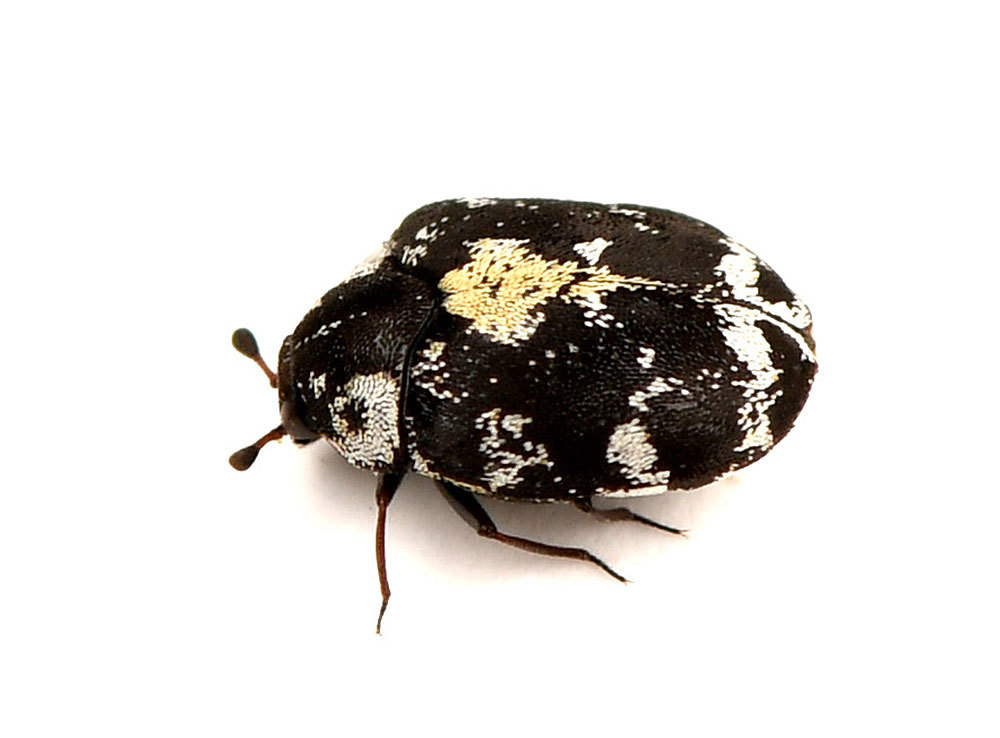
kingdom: Animalia
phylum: Arthropoda
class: Insecta
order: Coleoptera
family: Dermestidae
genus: Anthrenus
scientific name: Anthrenus lepidus
